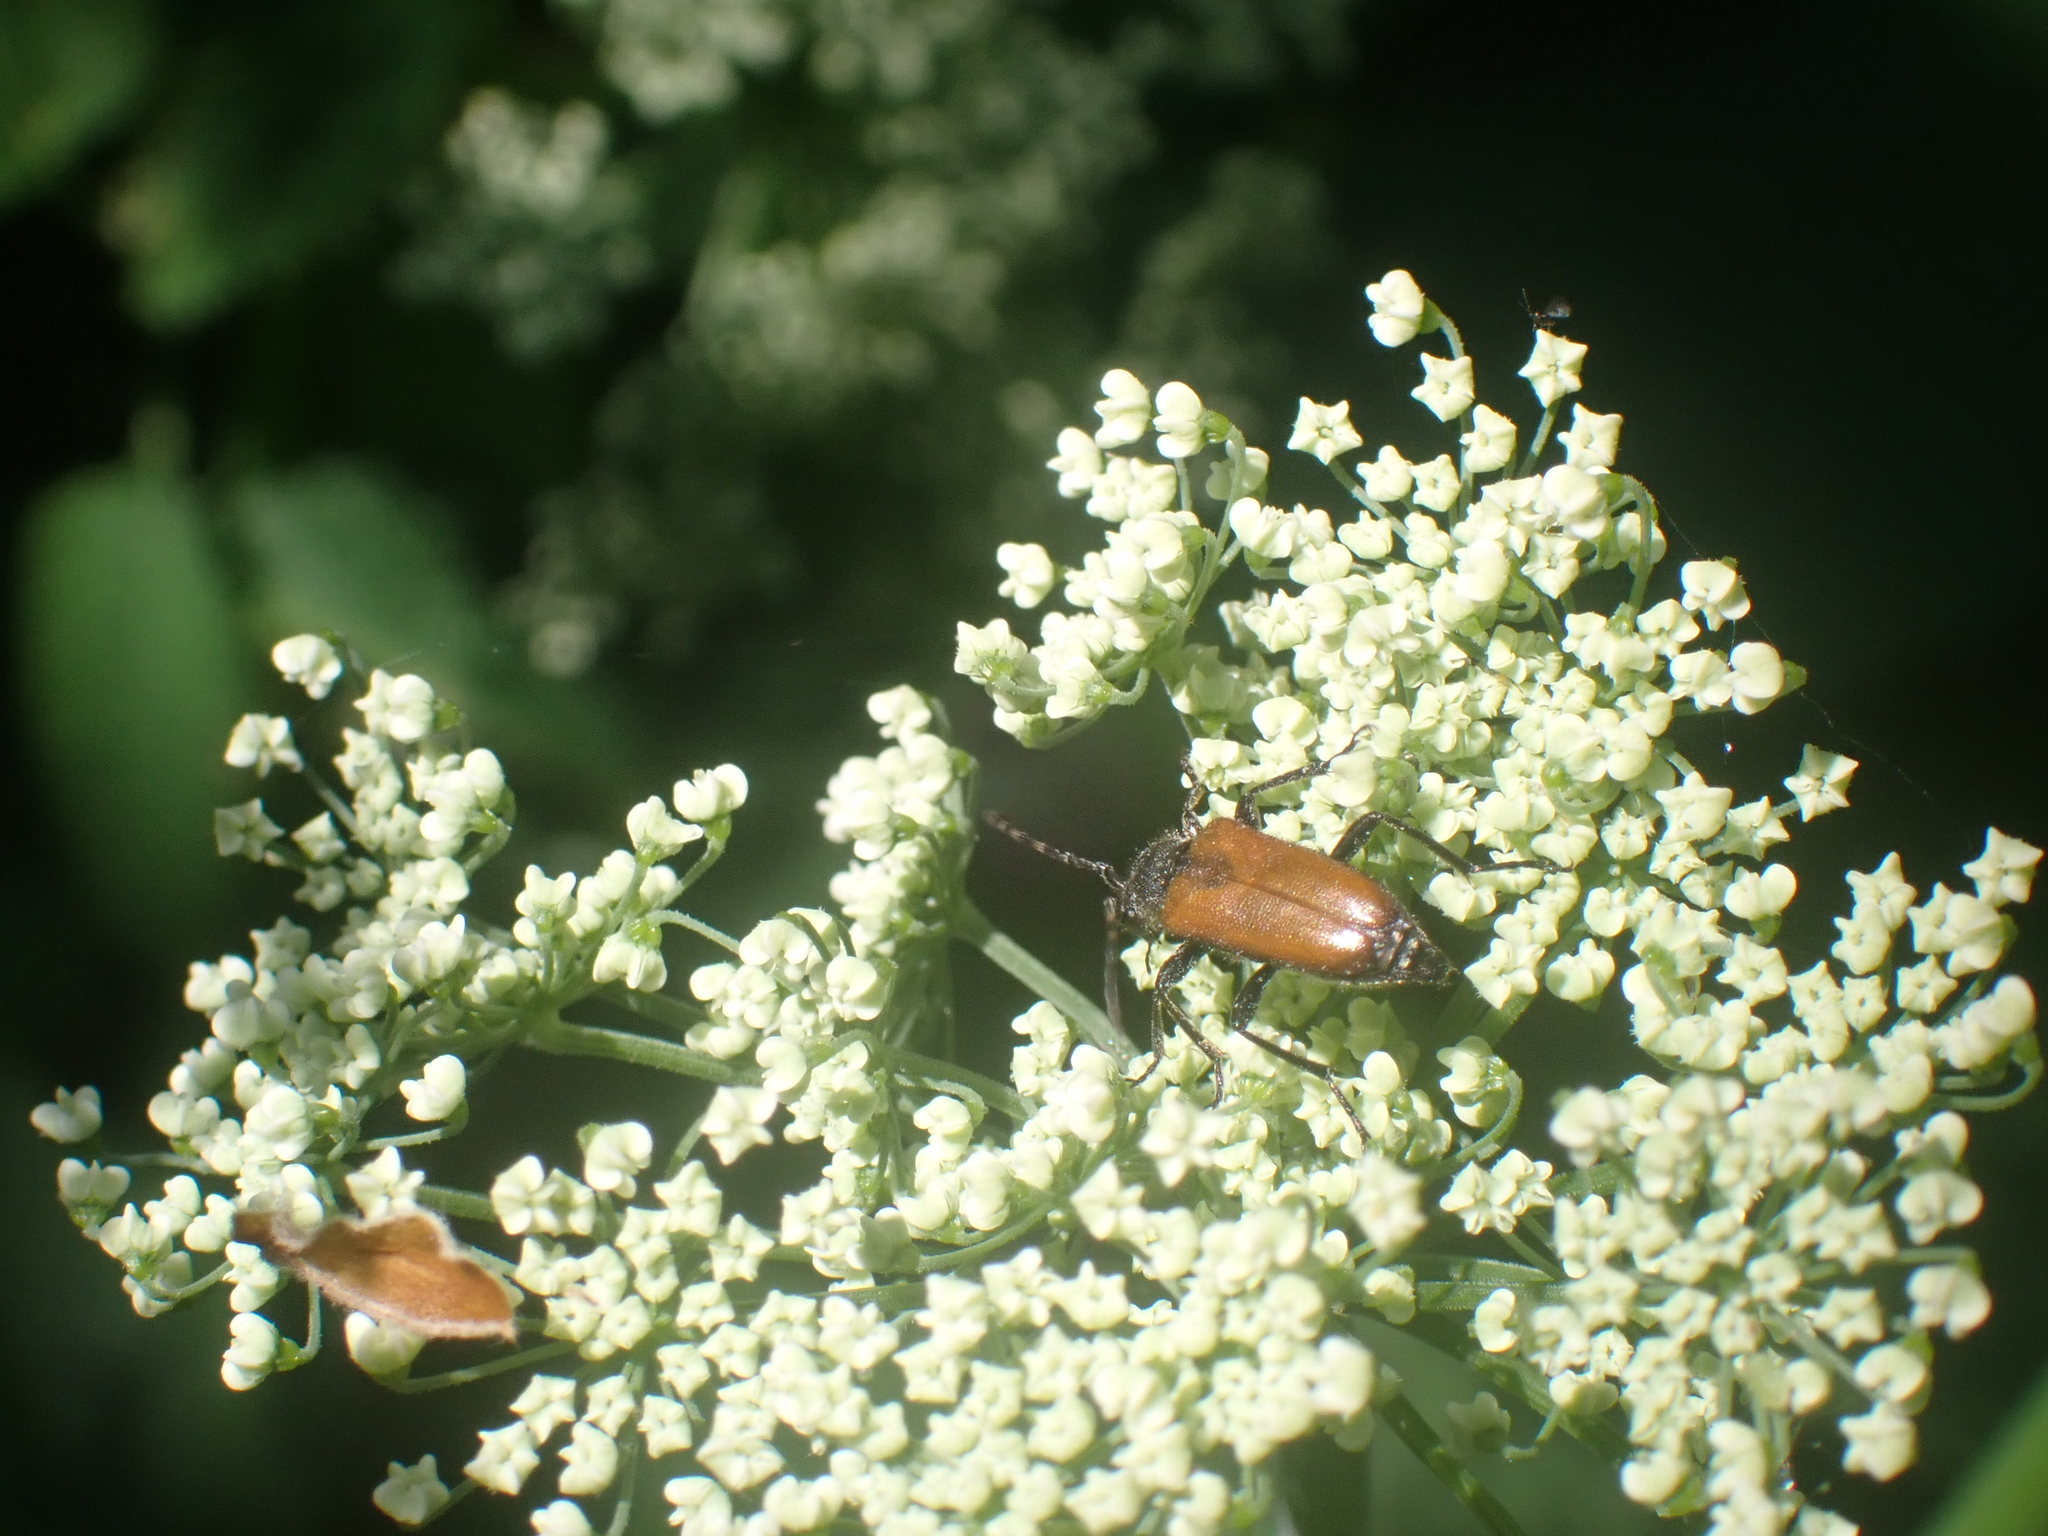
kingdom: Animalia
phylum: Arthropoda
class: Insecta
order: Coleoptera
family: Cerambycidae
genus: Paracorymbia
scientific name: Paracorymbia maculicornis
